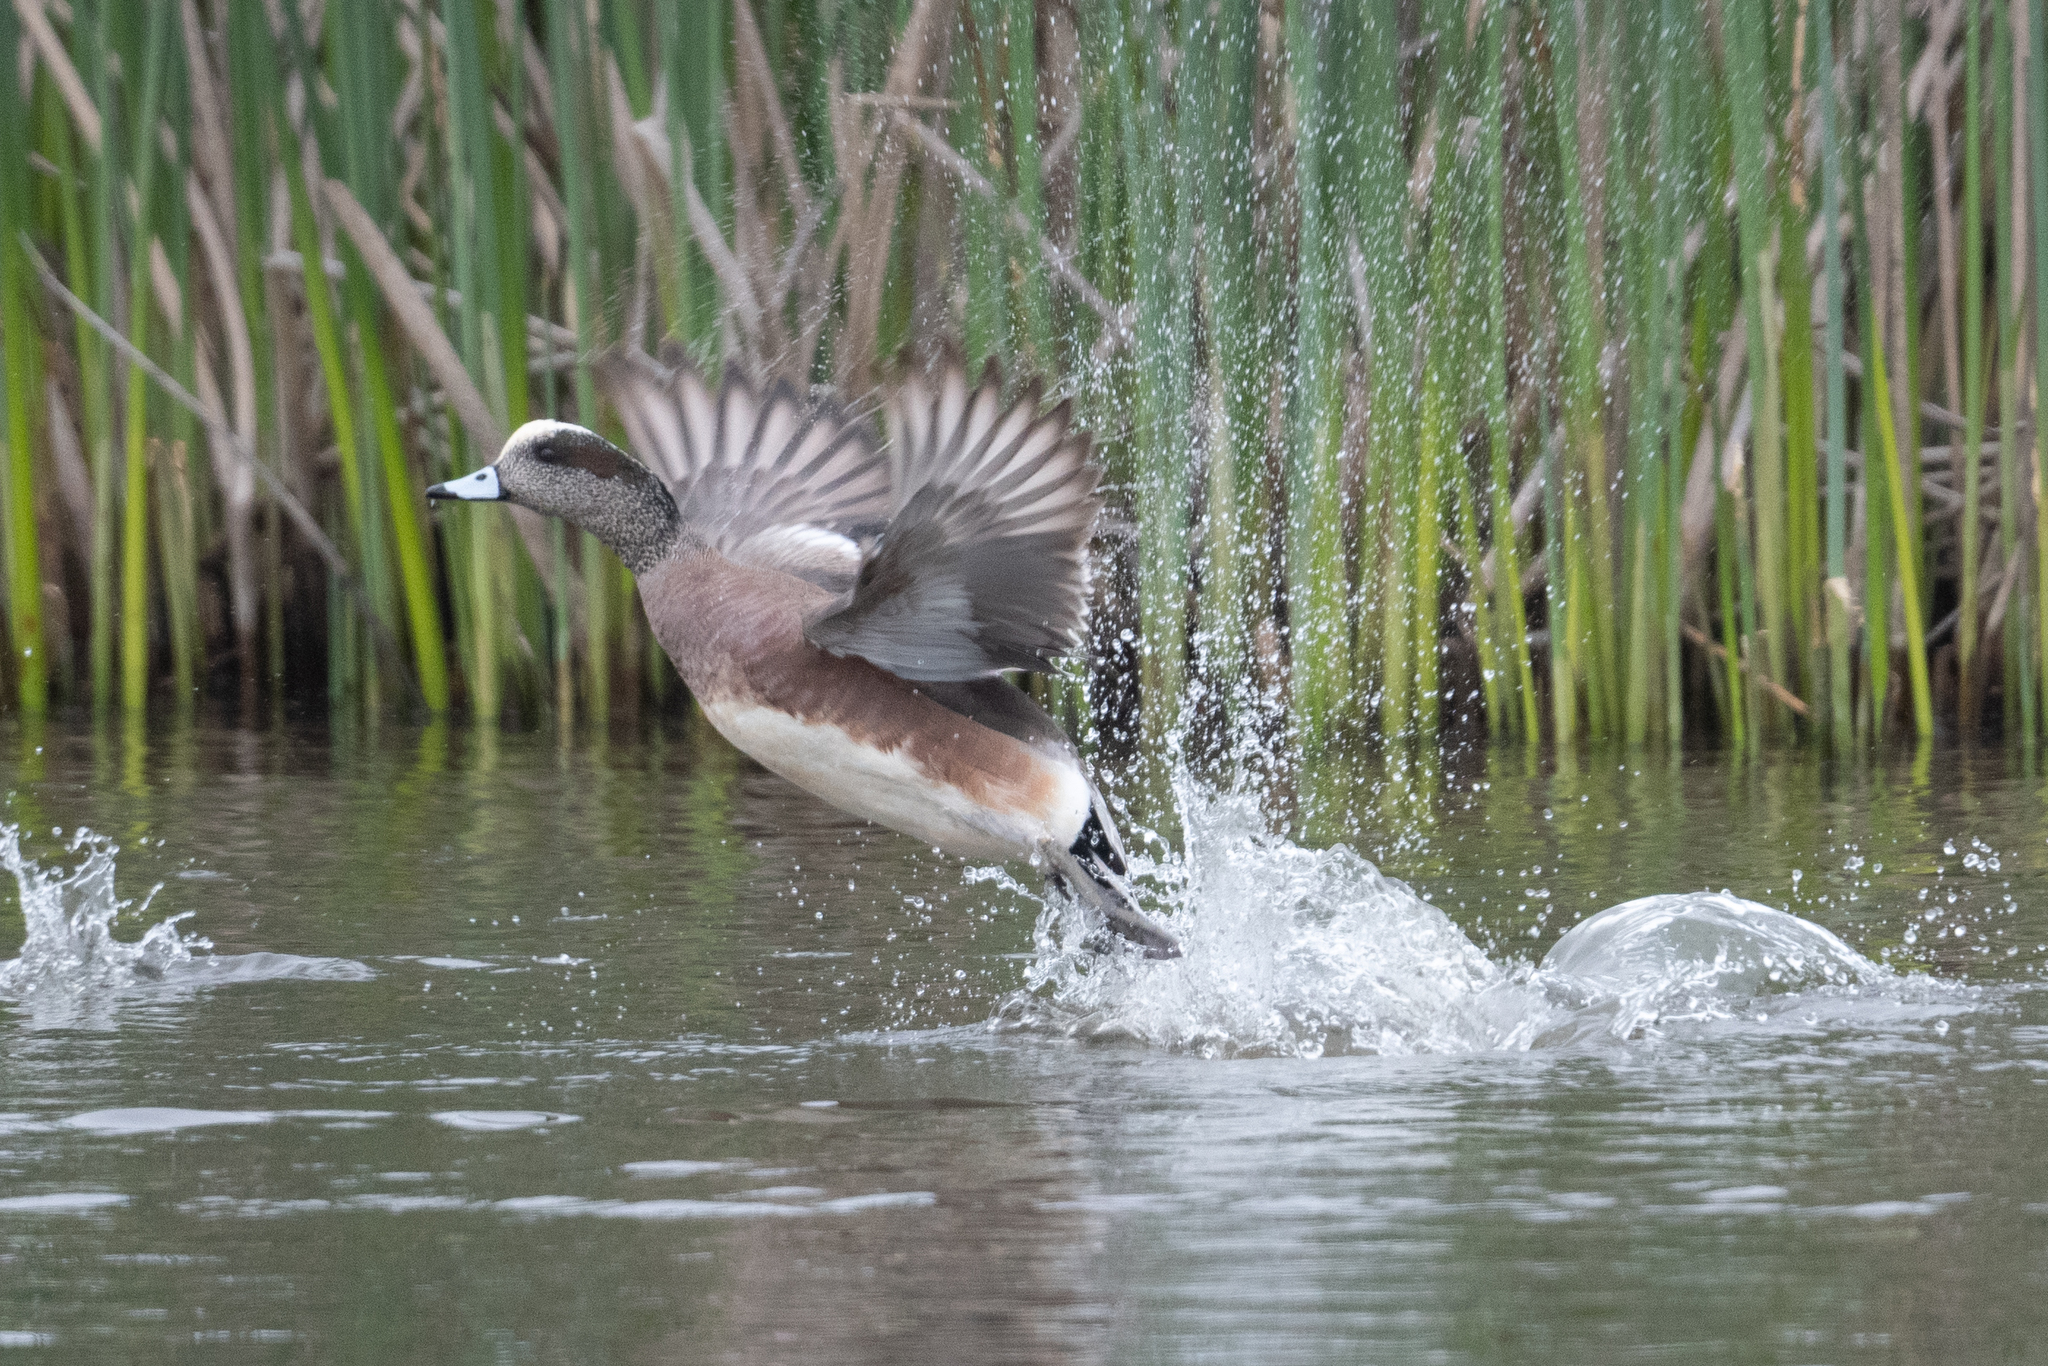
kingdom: Animalia
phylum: Chordata
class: Aves
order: Anseriformes
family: Anatidae
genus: Mareca
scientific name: Mareca americana
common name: American wigeon
